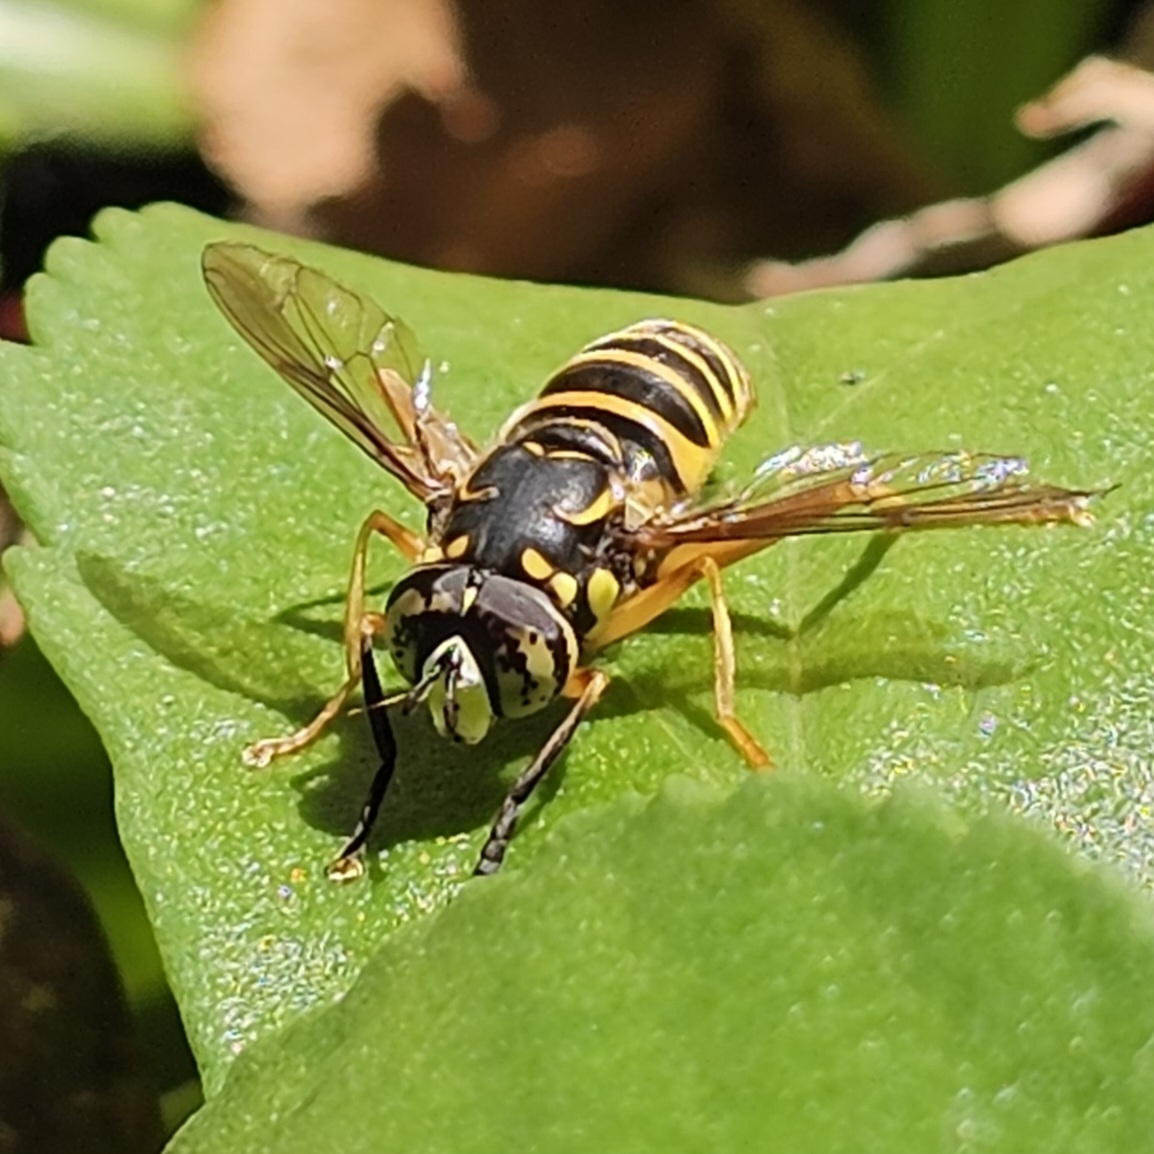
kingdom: Animalia
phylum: Arthropoda
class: Insecta
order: Diptera
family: Syrphidae
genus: Spilomyia
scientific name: Spilomyia longicornis
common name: Eastern hornet fly
